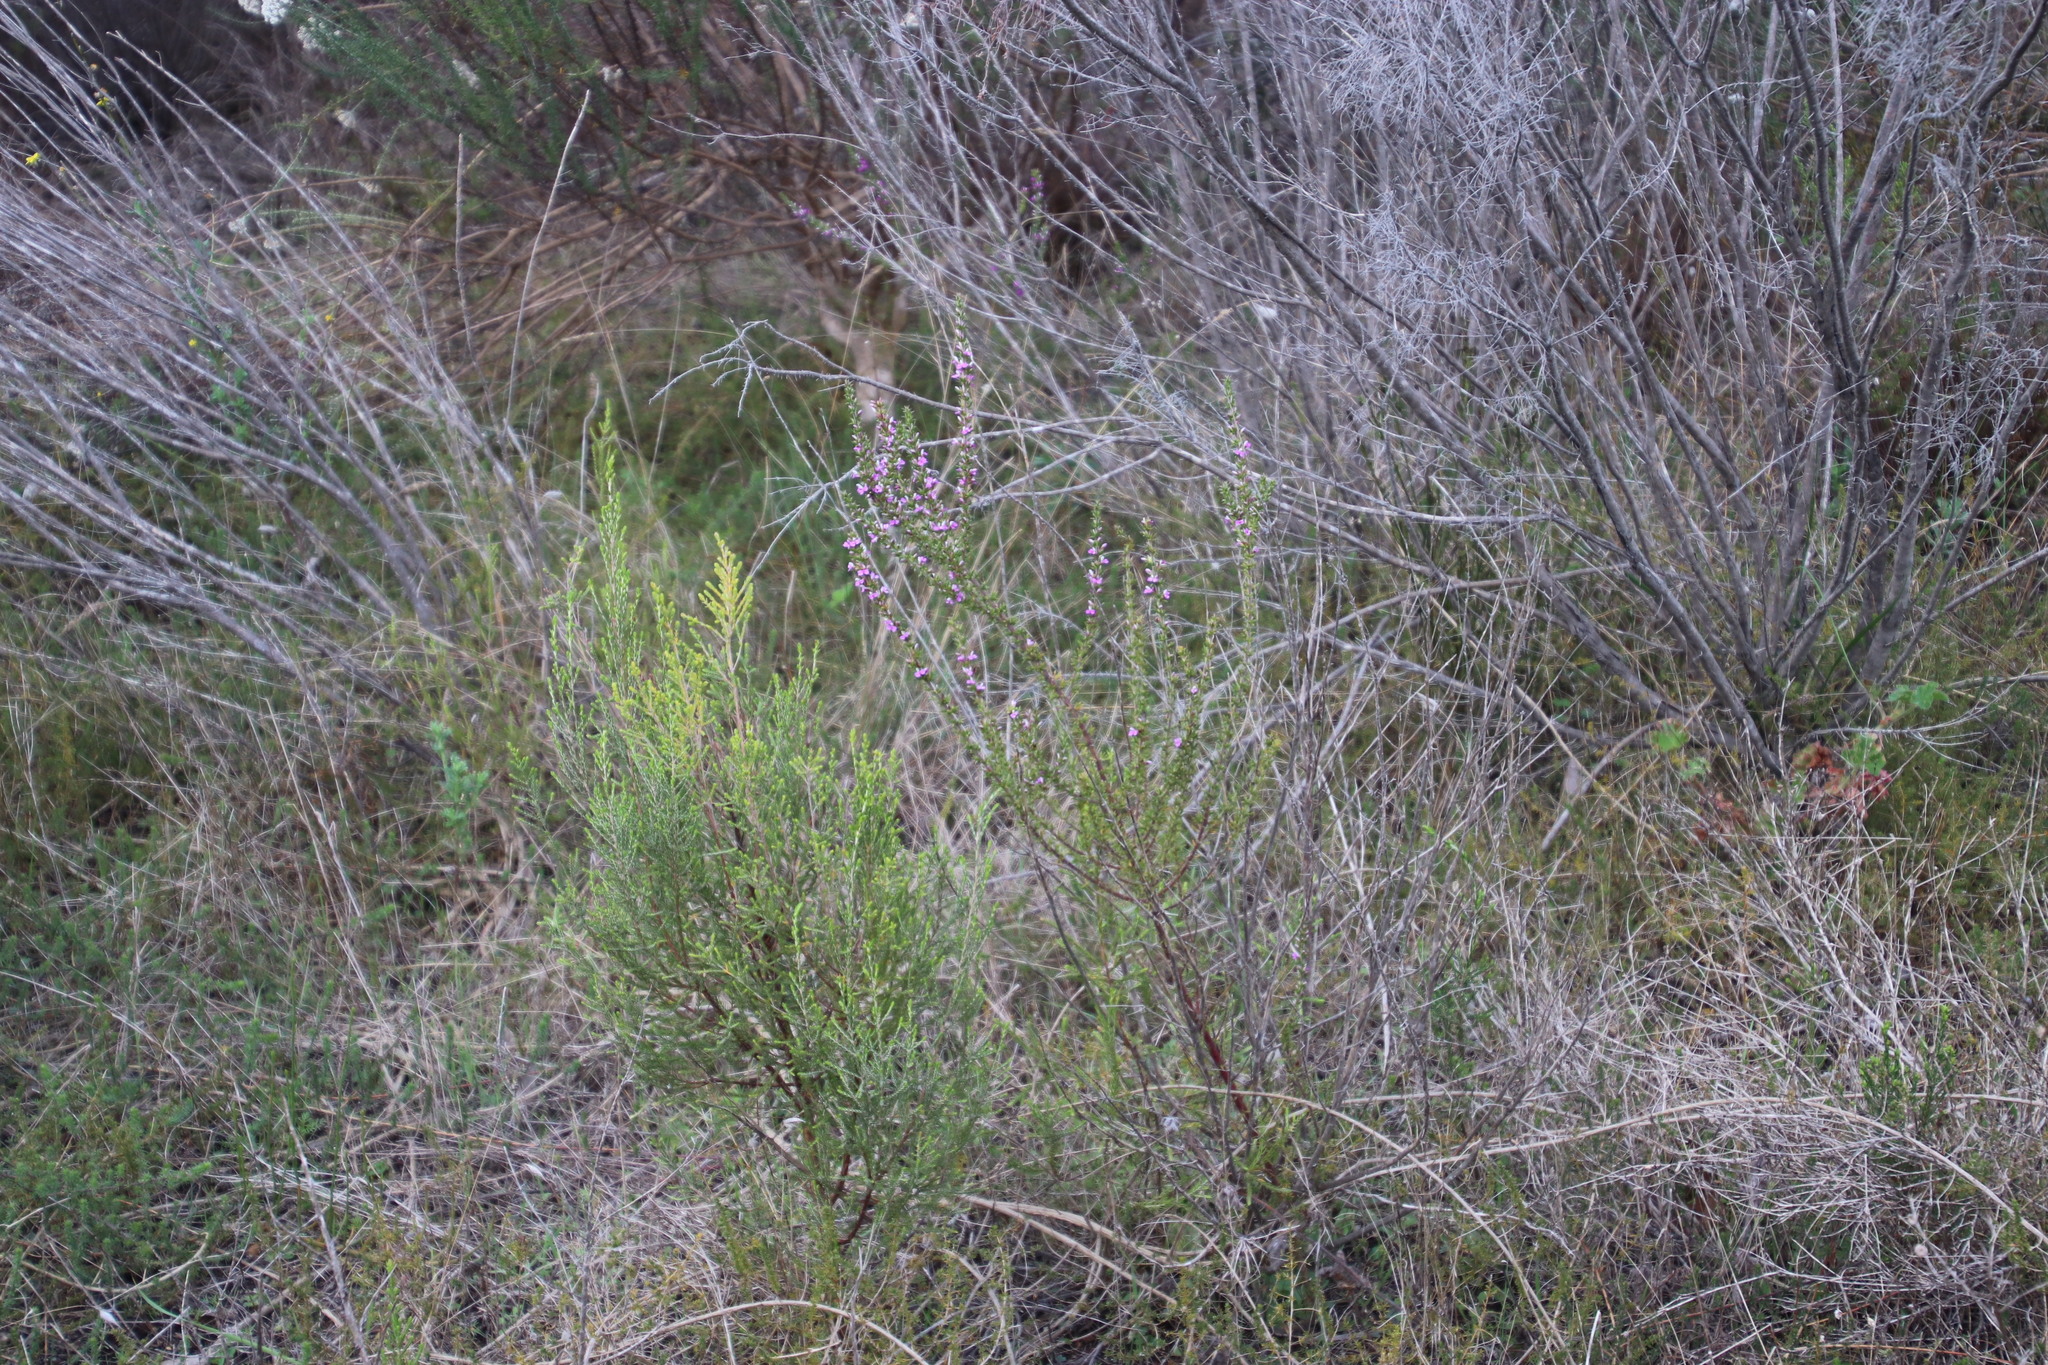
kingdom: Plantae
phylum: Tracheophyta
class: Magnoliopsida
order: Fabales
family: Polygalaceae
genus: Muraltia
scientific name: Muraltia heisteria
